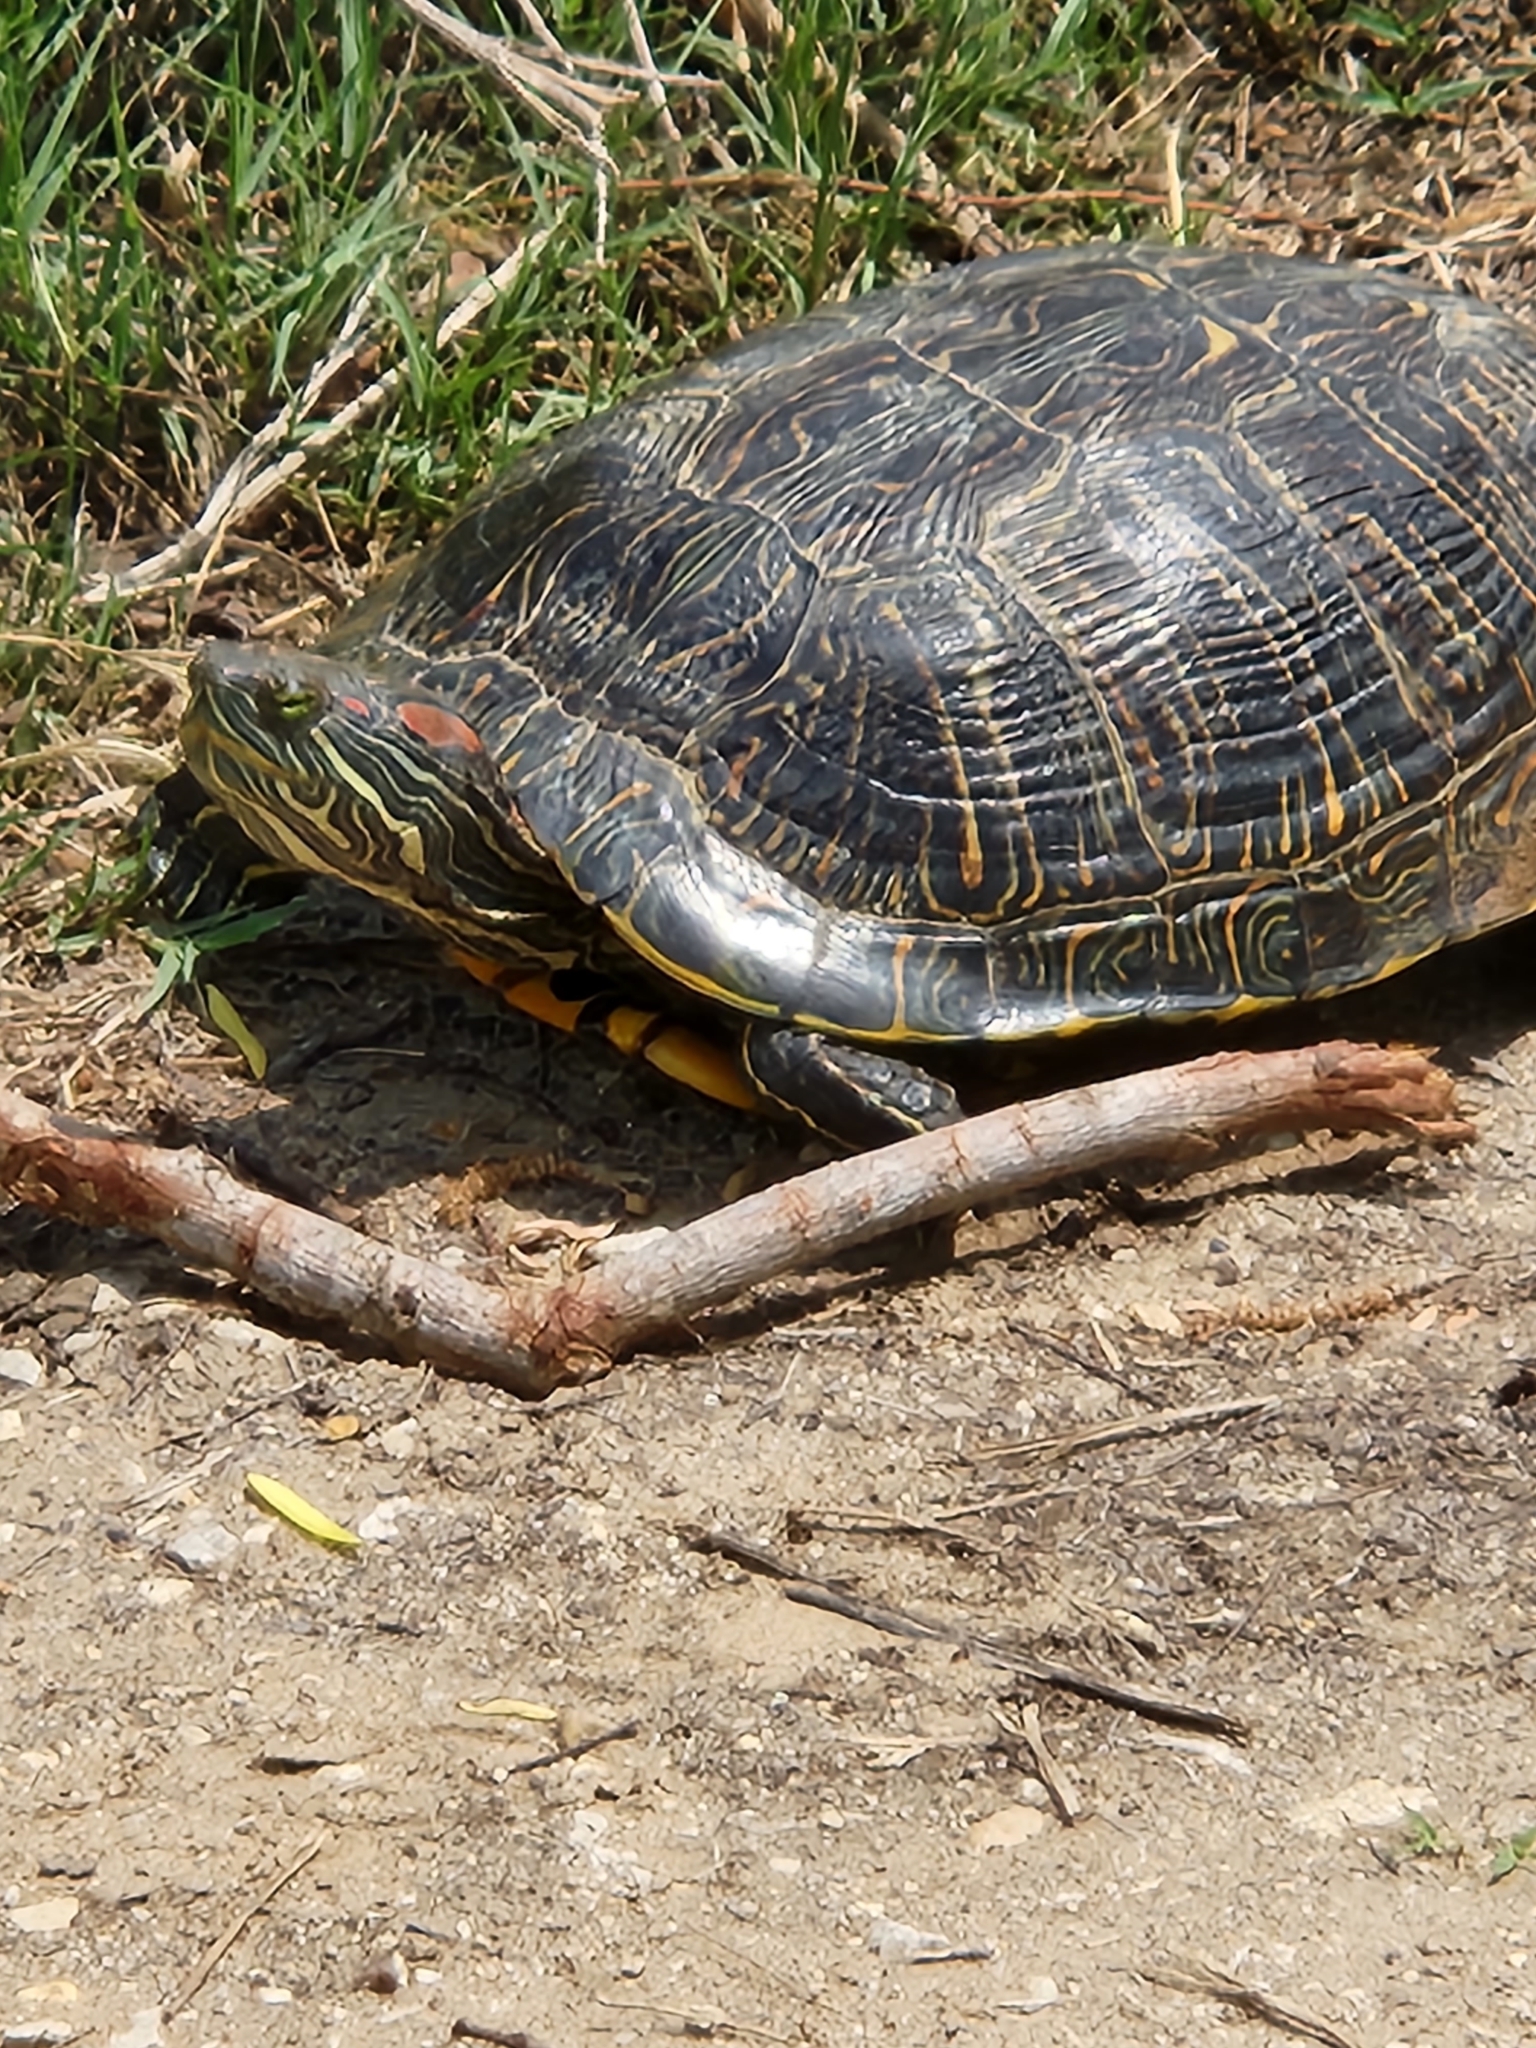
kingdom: Animalia
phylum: Chordata
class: Testudines
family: Emydidae
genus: Trachemys
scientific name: Trachemys scripta
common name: Slider
